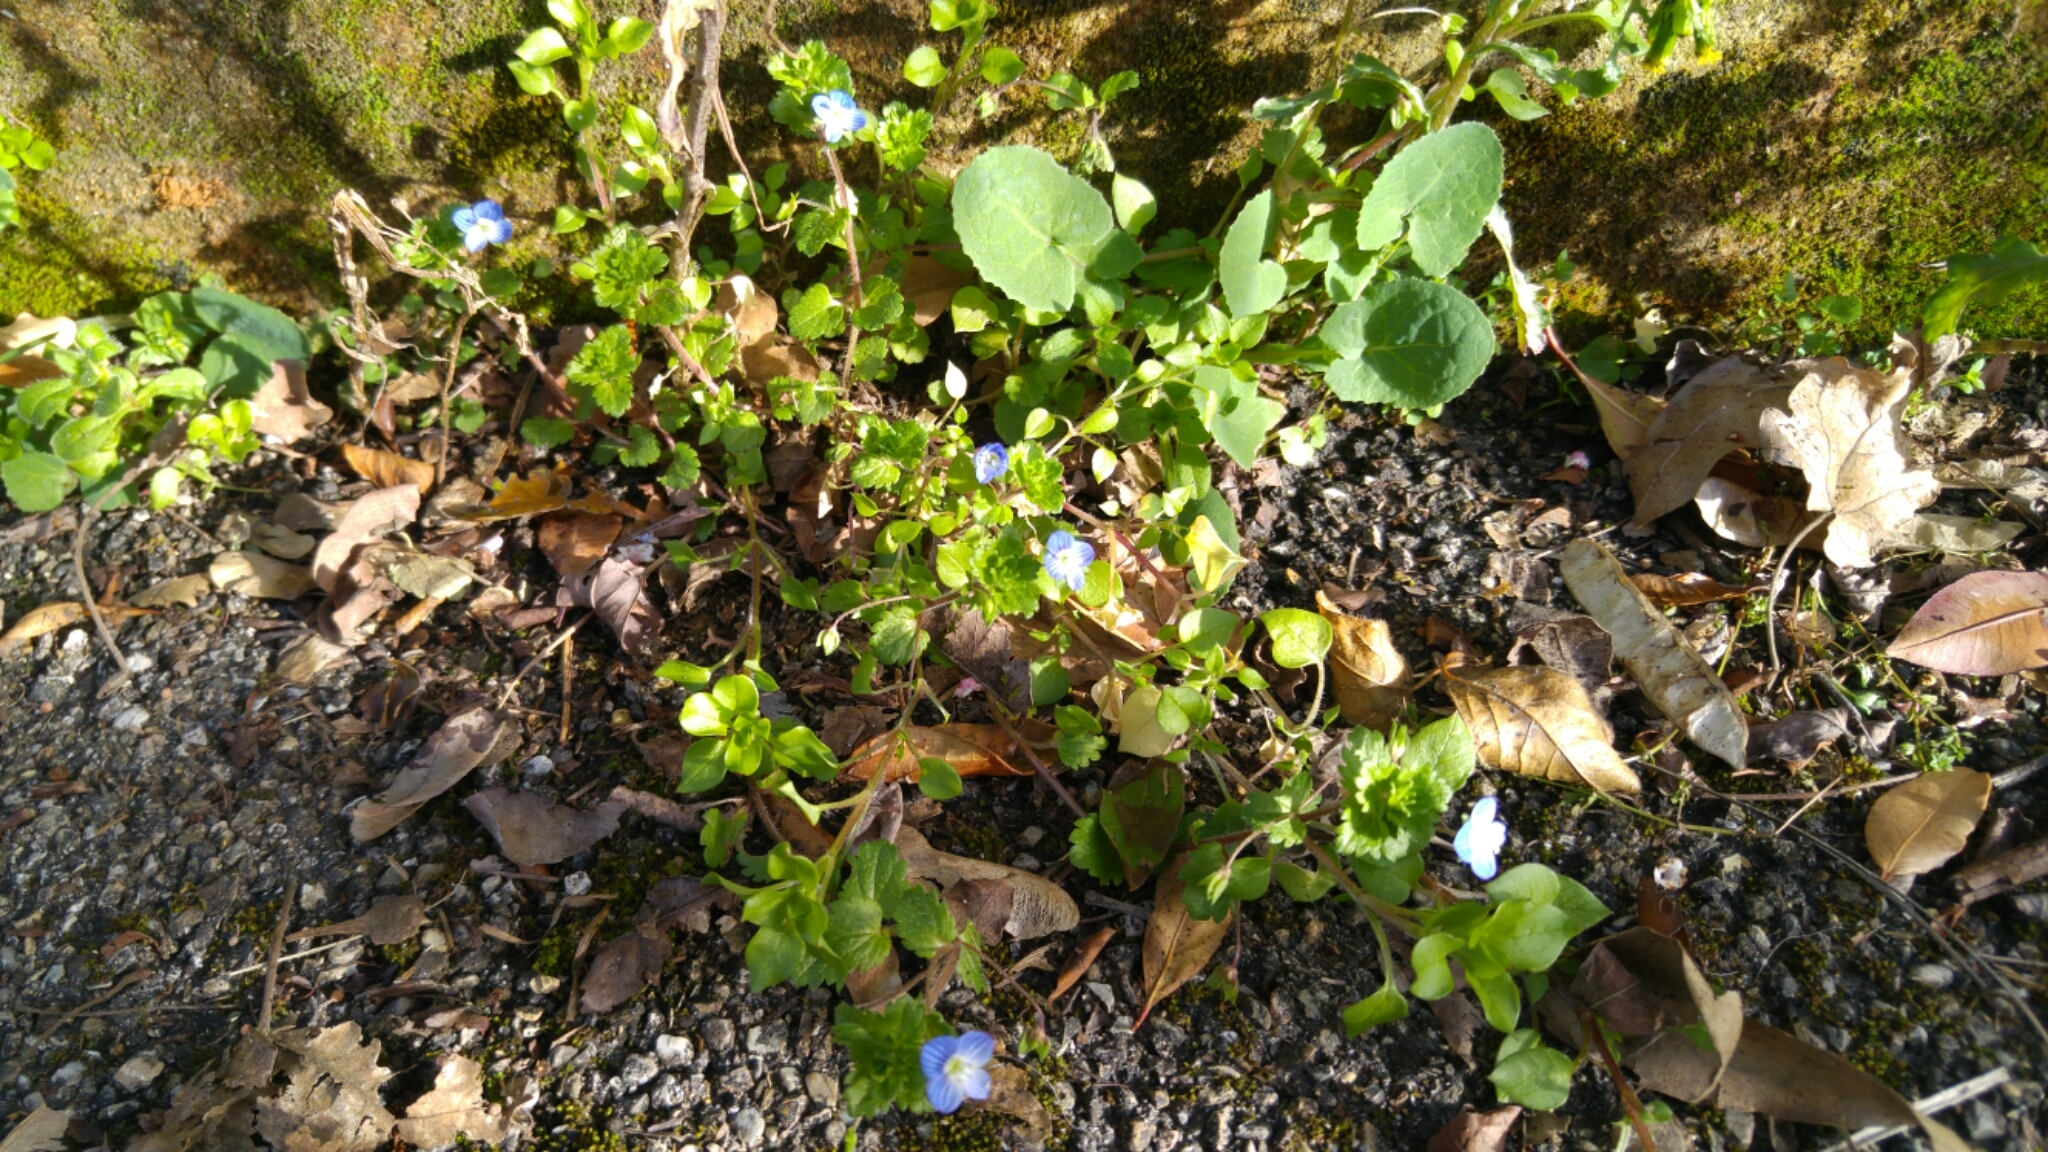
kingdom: Plantae
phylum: Tracheophyta
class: Magnoliopsida
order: Lamiales
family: Plantaginaceae
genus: Veronica
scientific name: Veronica persica
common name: Common field-speedwell
